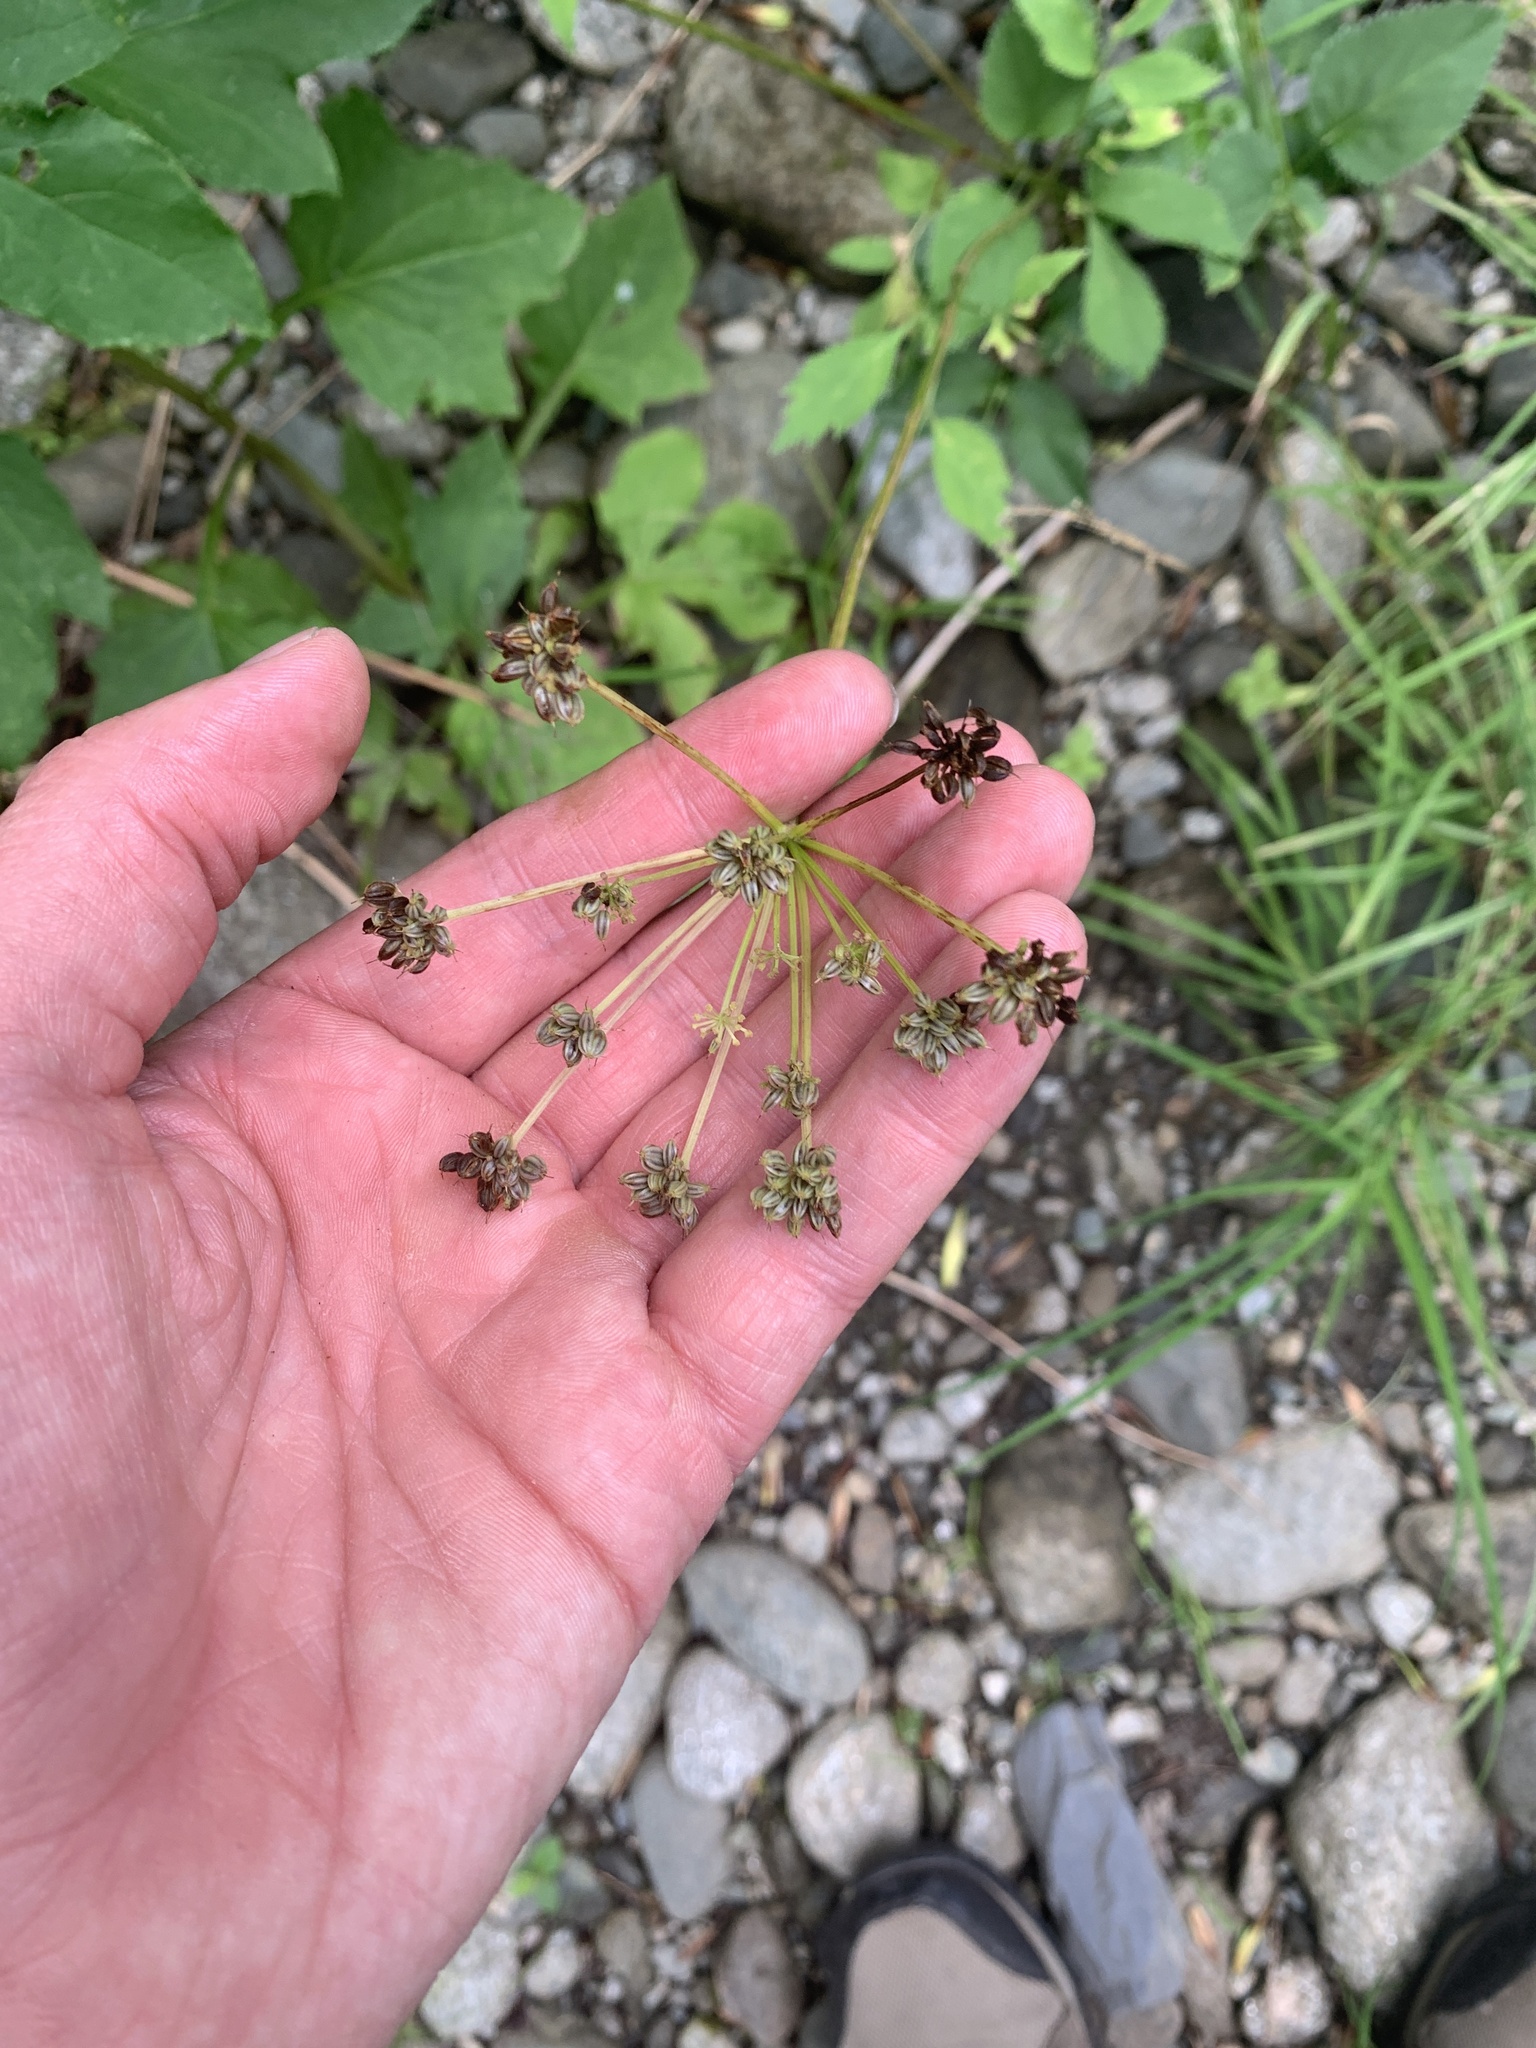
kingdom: Plantae
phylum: Tracheophyta
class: Magnoliopsida
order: Apiales
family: Apiaceae
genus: Zizia
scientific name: Zizia aurea
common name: Golden alexanders
